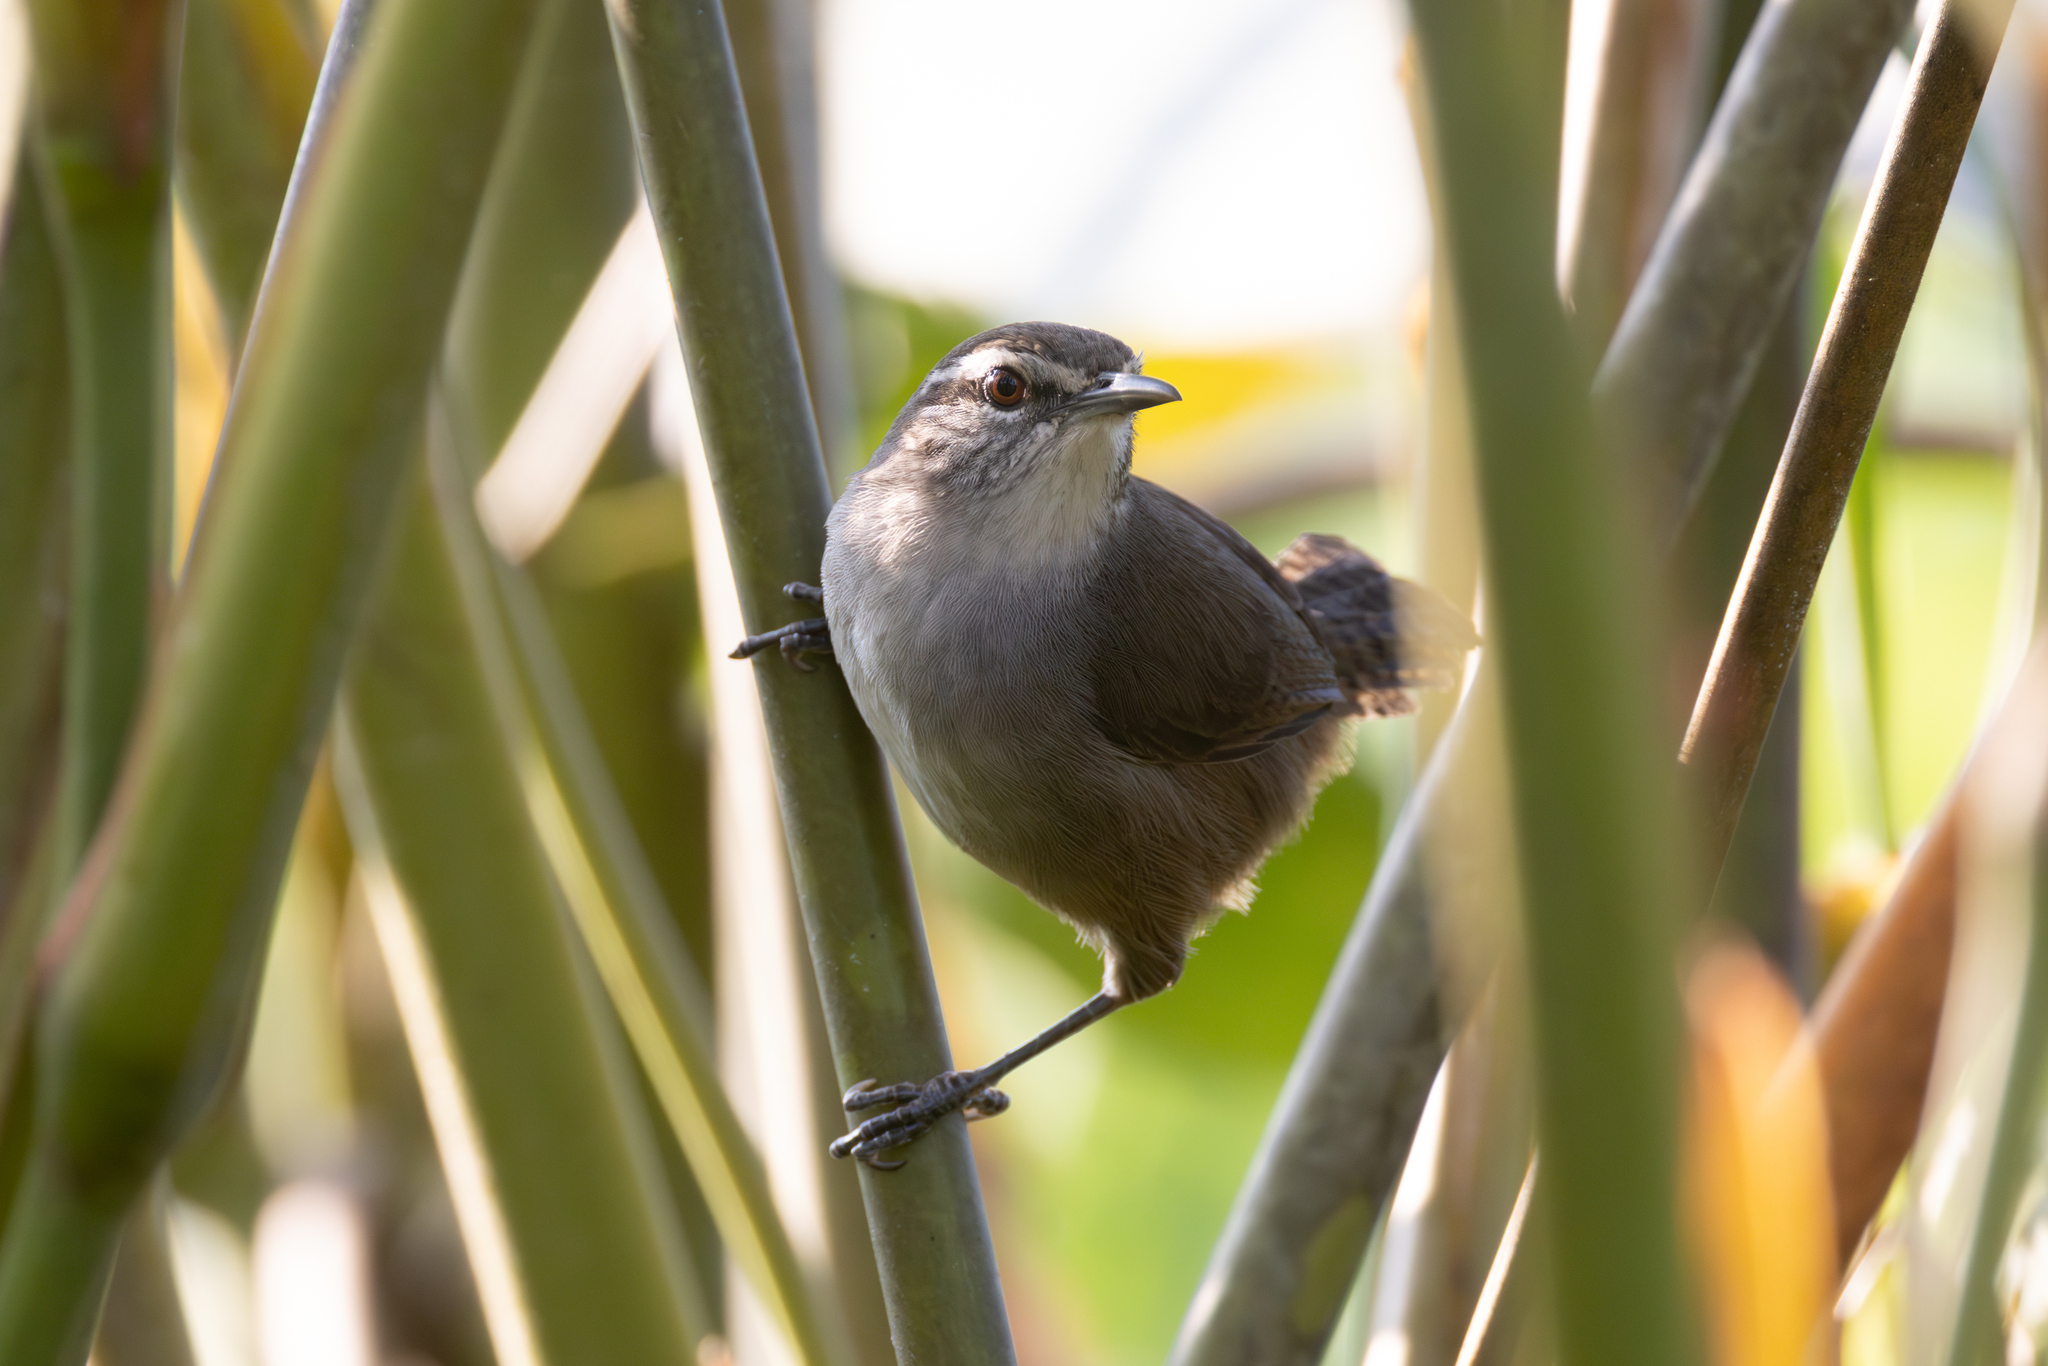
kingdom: Animalia
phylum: Chordata
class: Aves
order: Passeriformes
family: Troglodytidae
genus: Cantorchilus
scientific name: Cantorchilus modestus
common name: Cabanis's wren
